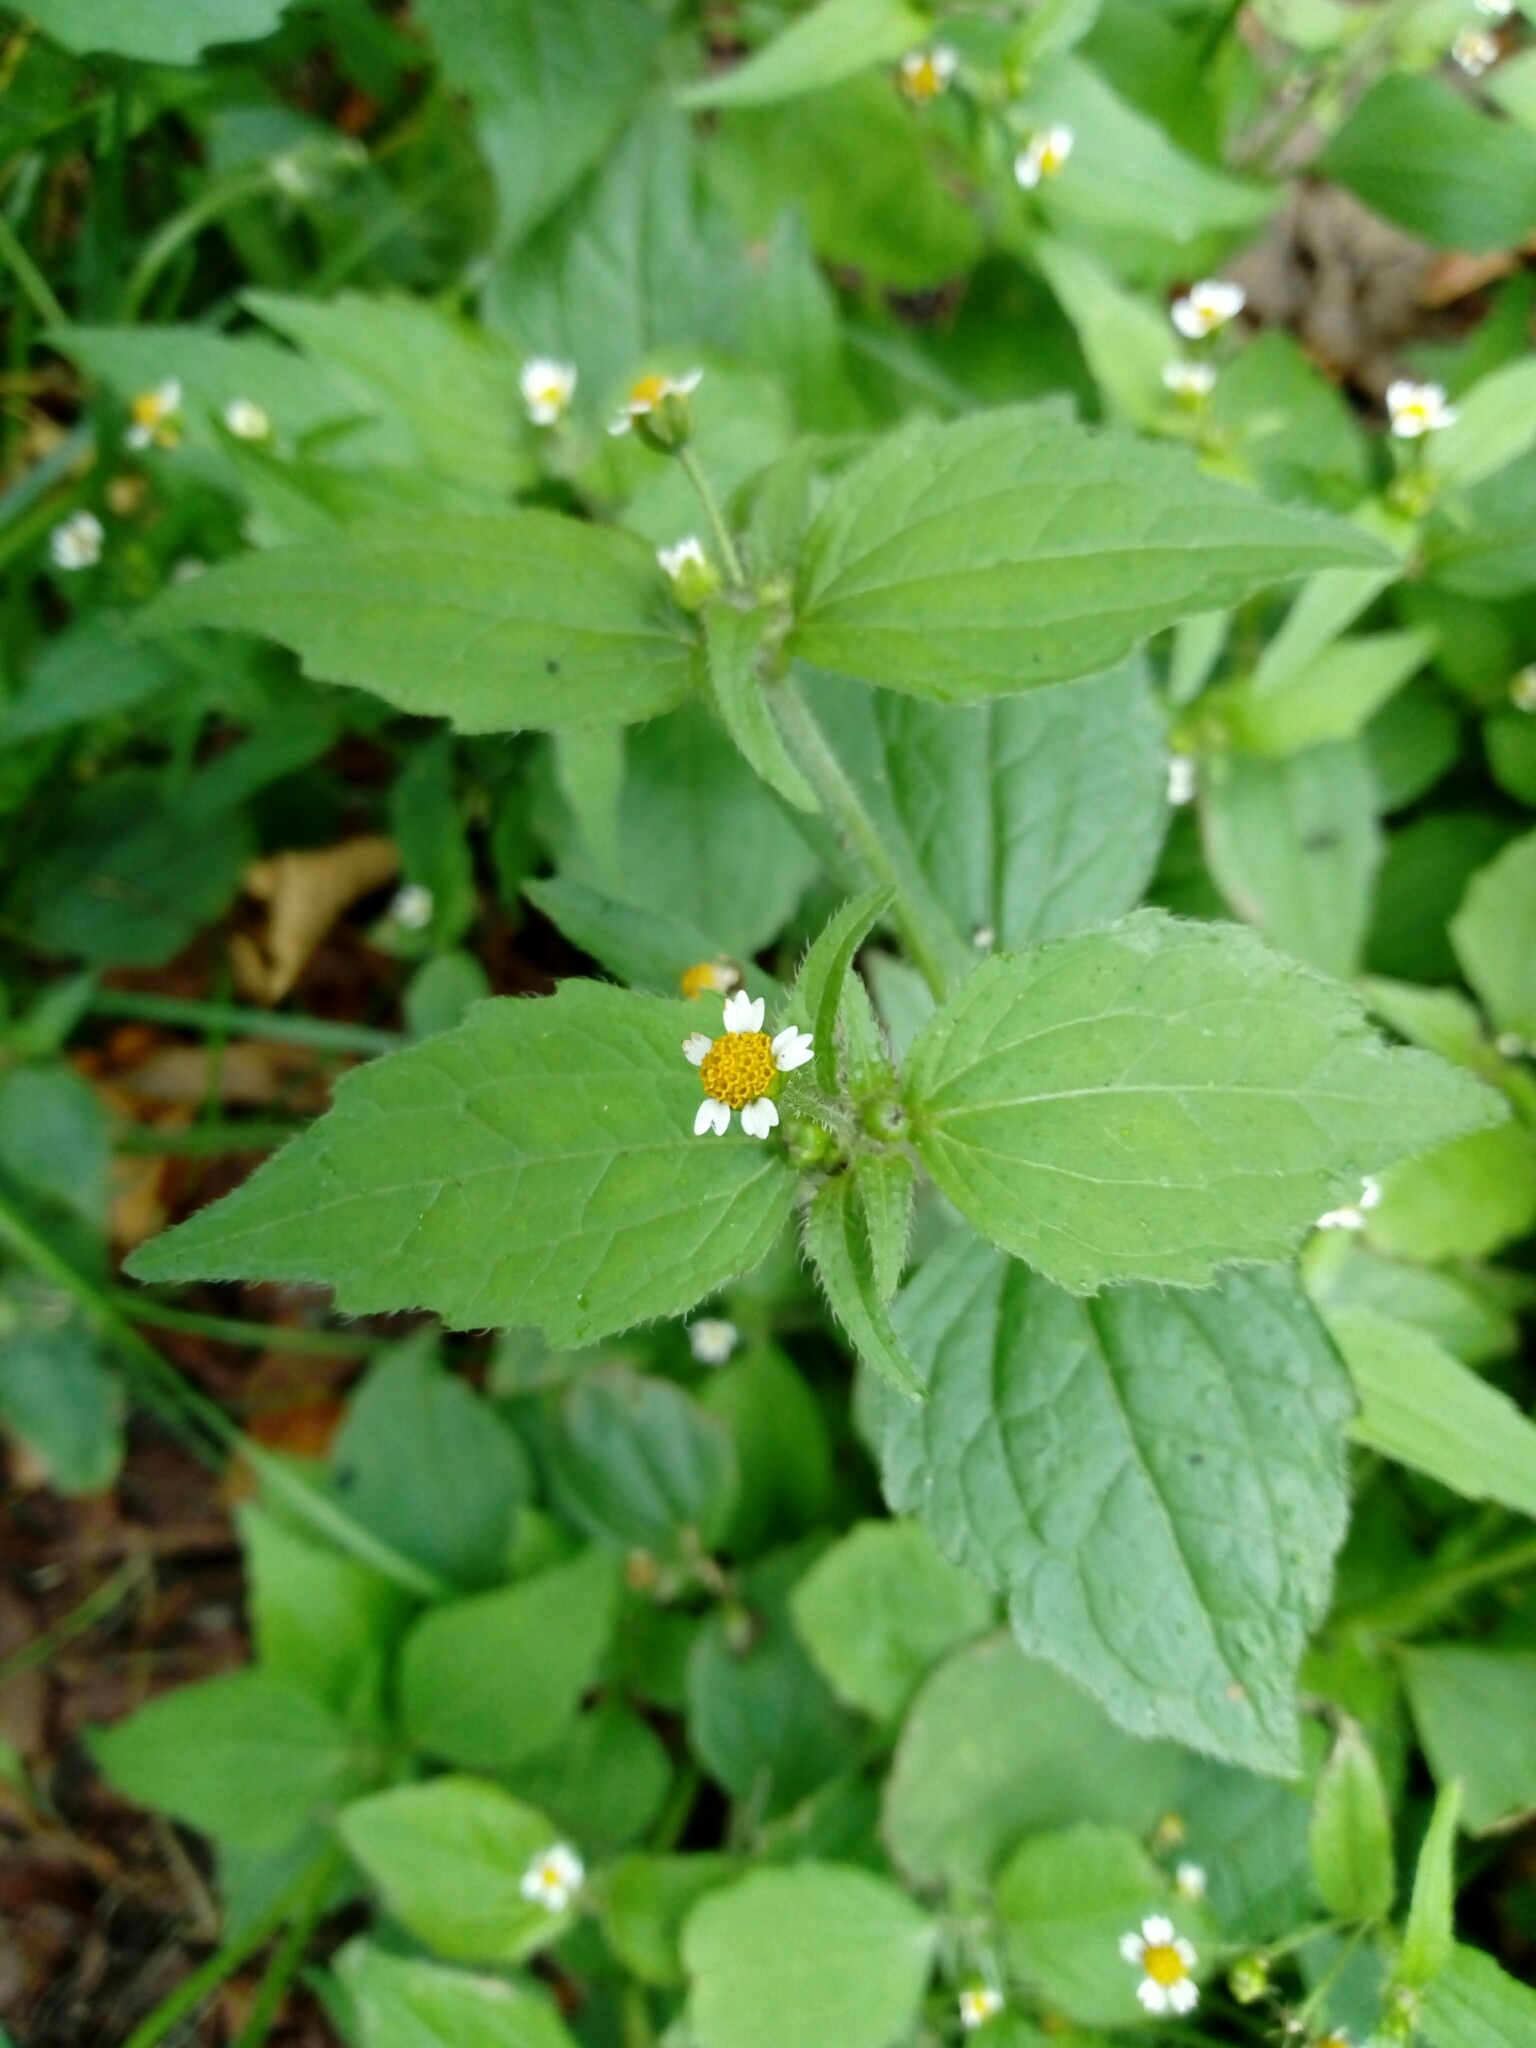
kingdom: Plantae
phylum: Tracheophyta
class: Magnoliopsida
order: Asterales
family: Asteraceae
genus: Galinsoga
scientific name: Galinsoga quadriradiata
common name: Shaggy soldier
